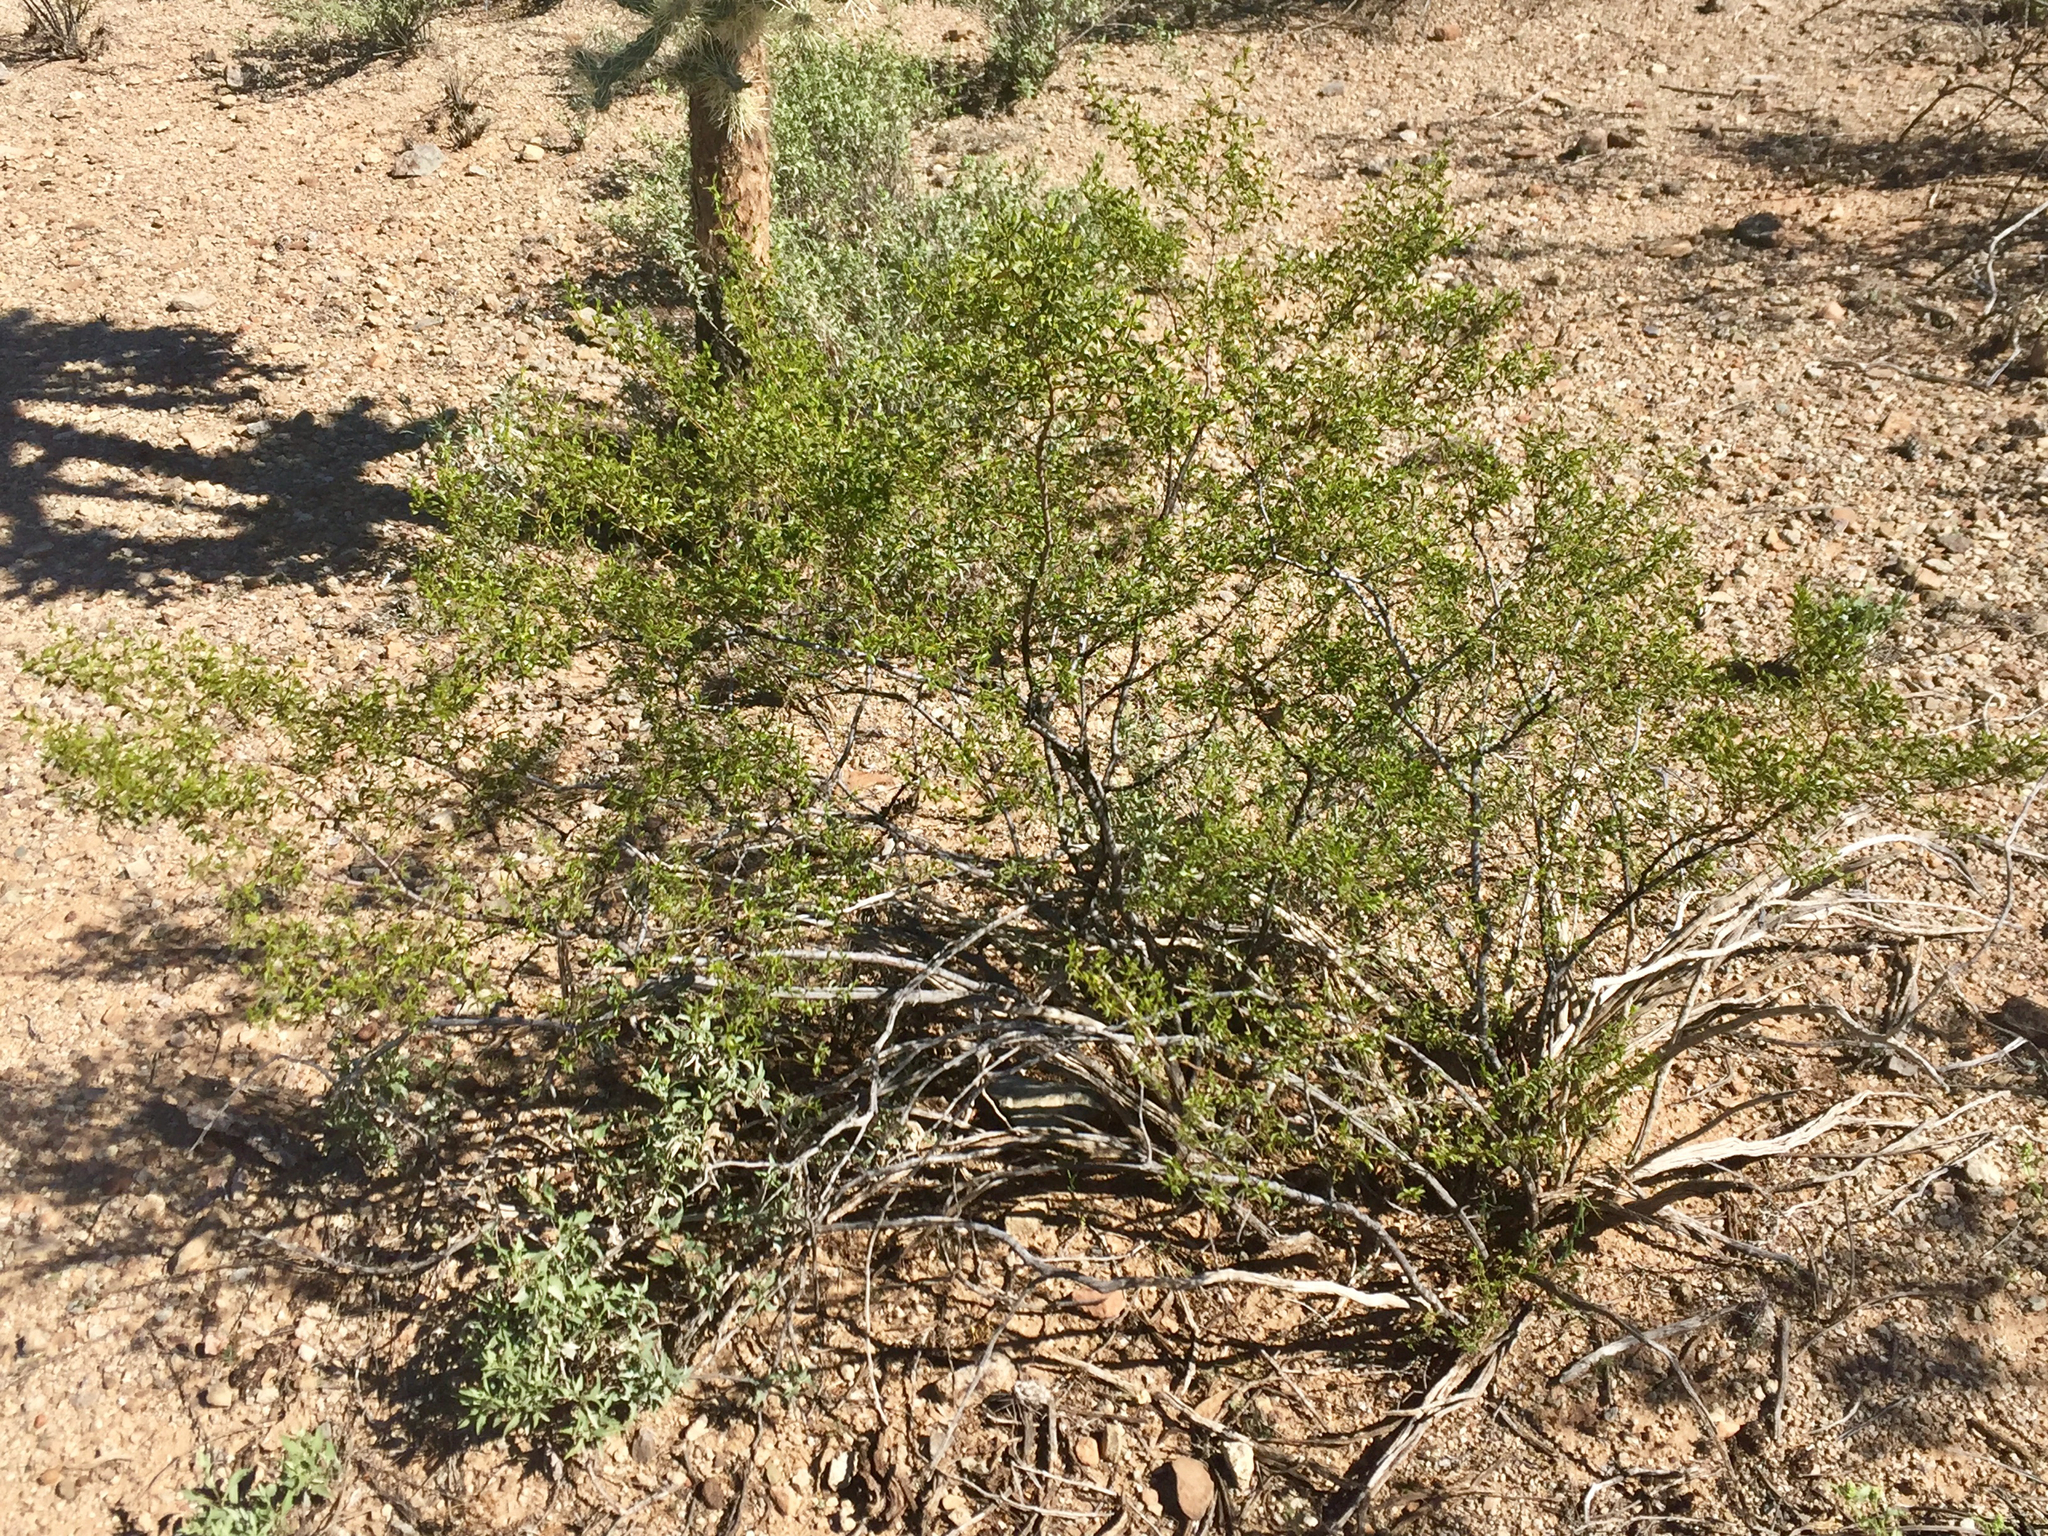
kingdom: Plantae
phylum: Tracheophyta
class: Magnoliopsida
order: Zygophyllales
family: Zygophyllaceae
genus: Larrea
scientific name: Larrea tridentata
